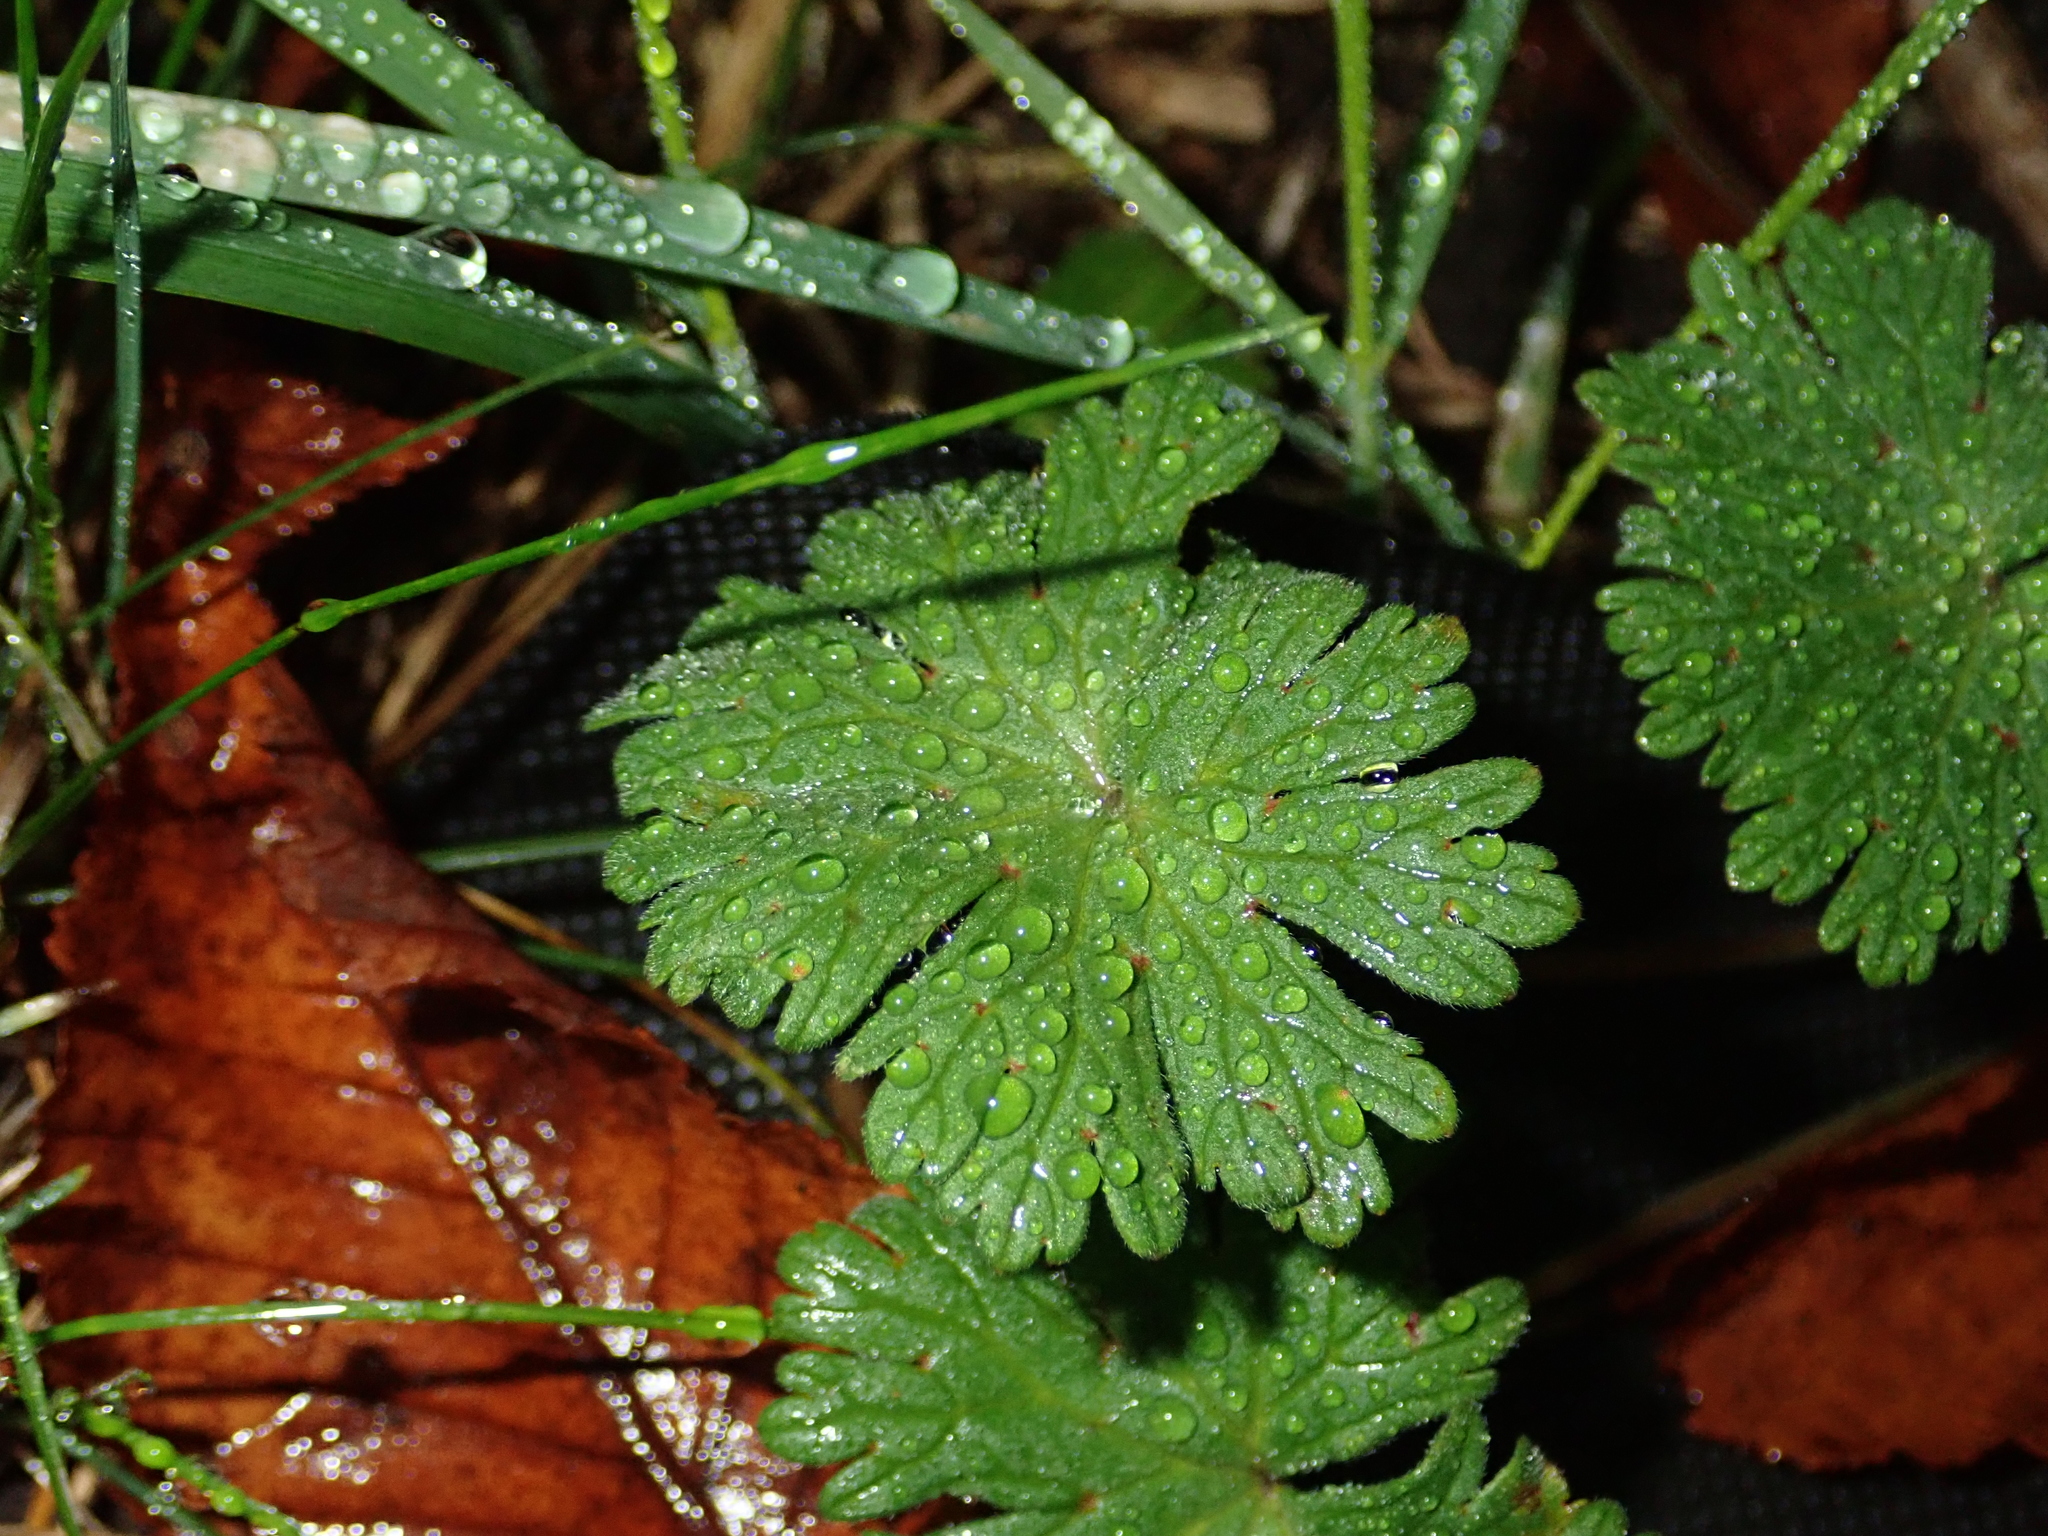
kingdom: Plantae
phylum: Tracheophyta
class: Magnoliopsida
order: Geraniales
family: Geraniaceae
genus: Geranium
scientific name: Geranium molle
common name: Dove's-foot crane's-bill
